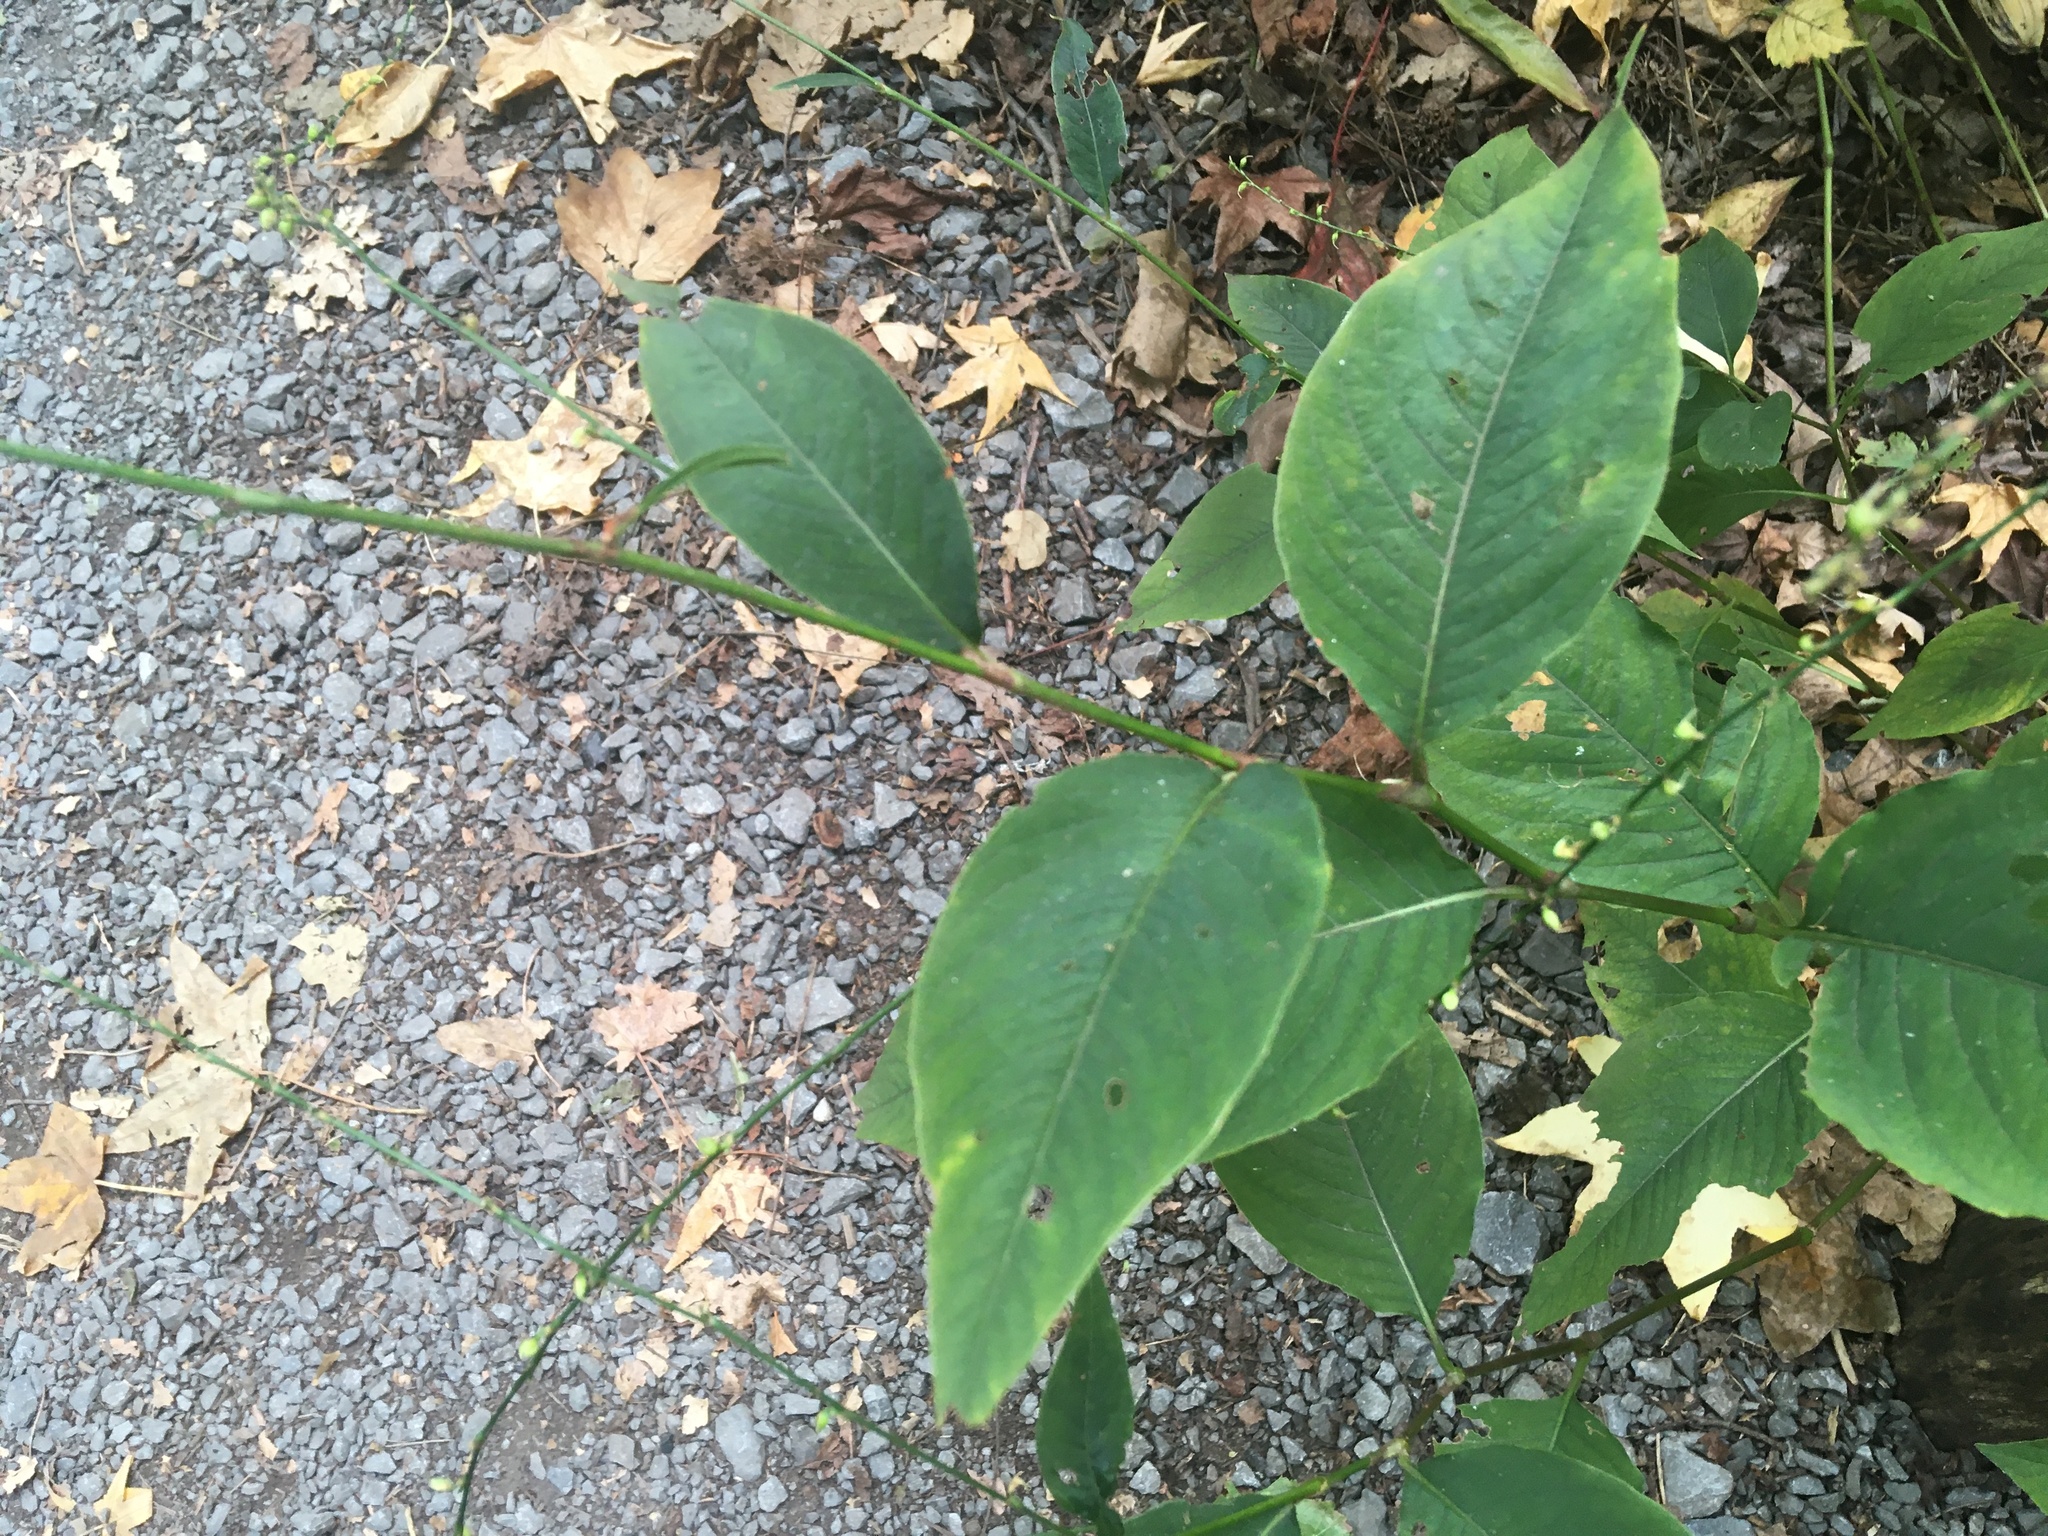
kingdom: Plantae
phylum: Tracheophyta
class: Magnoliopsida
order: Caryophyllales
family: Polygonaceae
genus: Persicaria
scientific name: Persicaria virginiana
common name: Jumpseed
